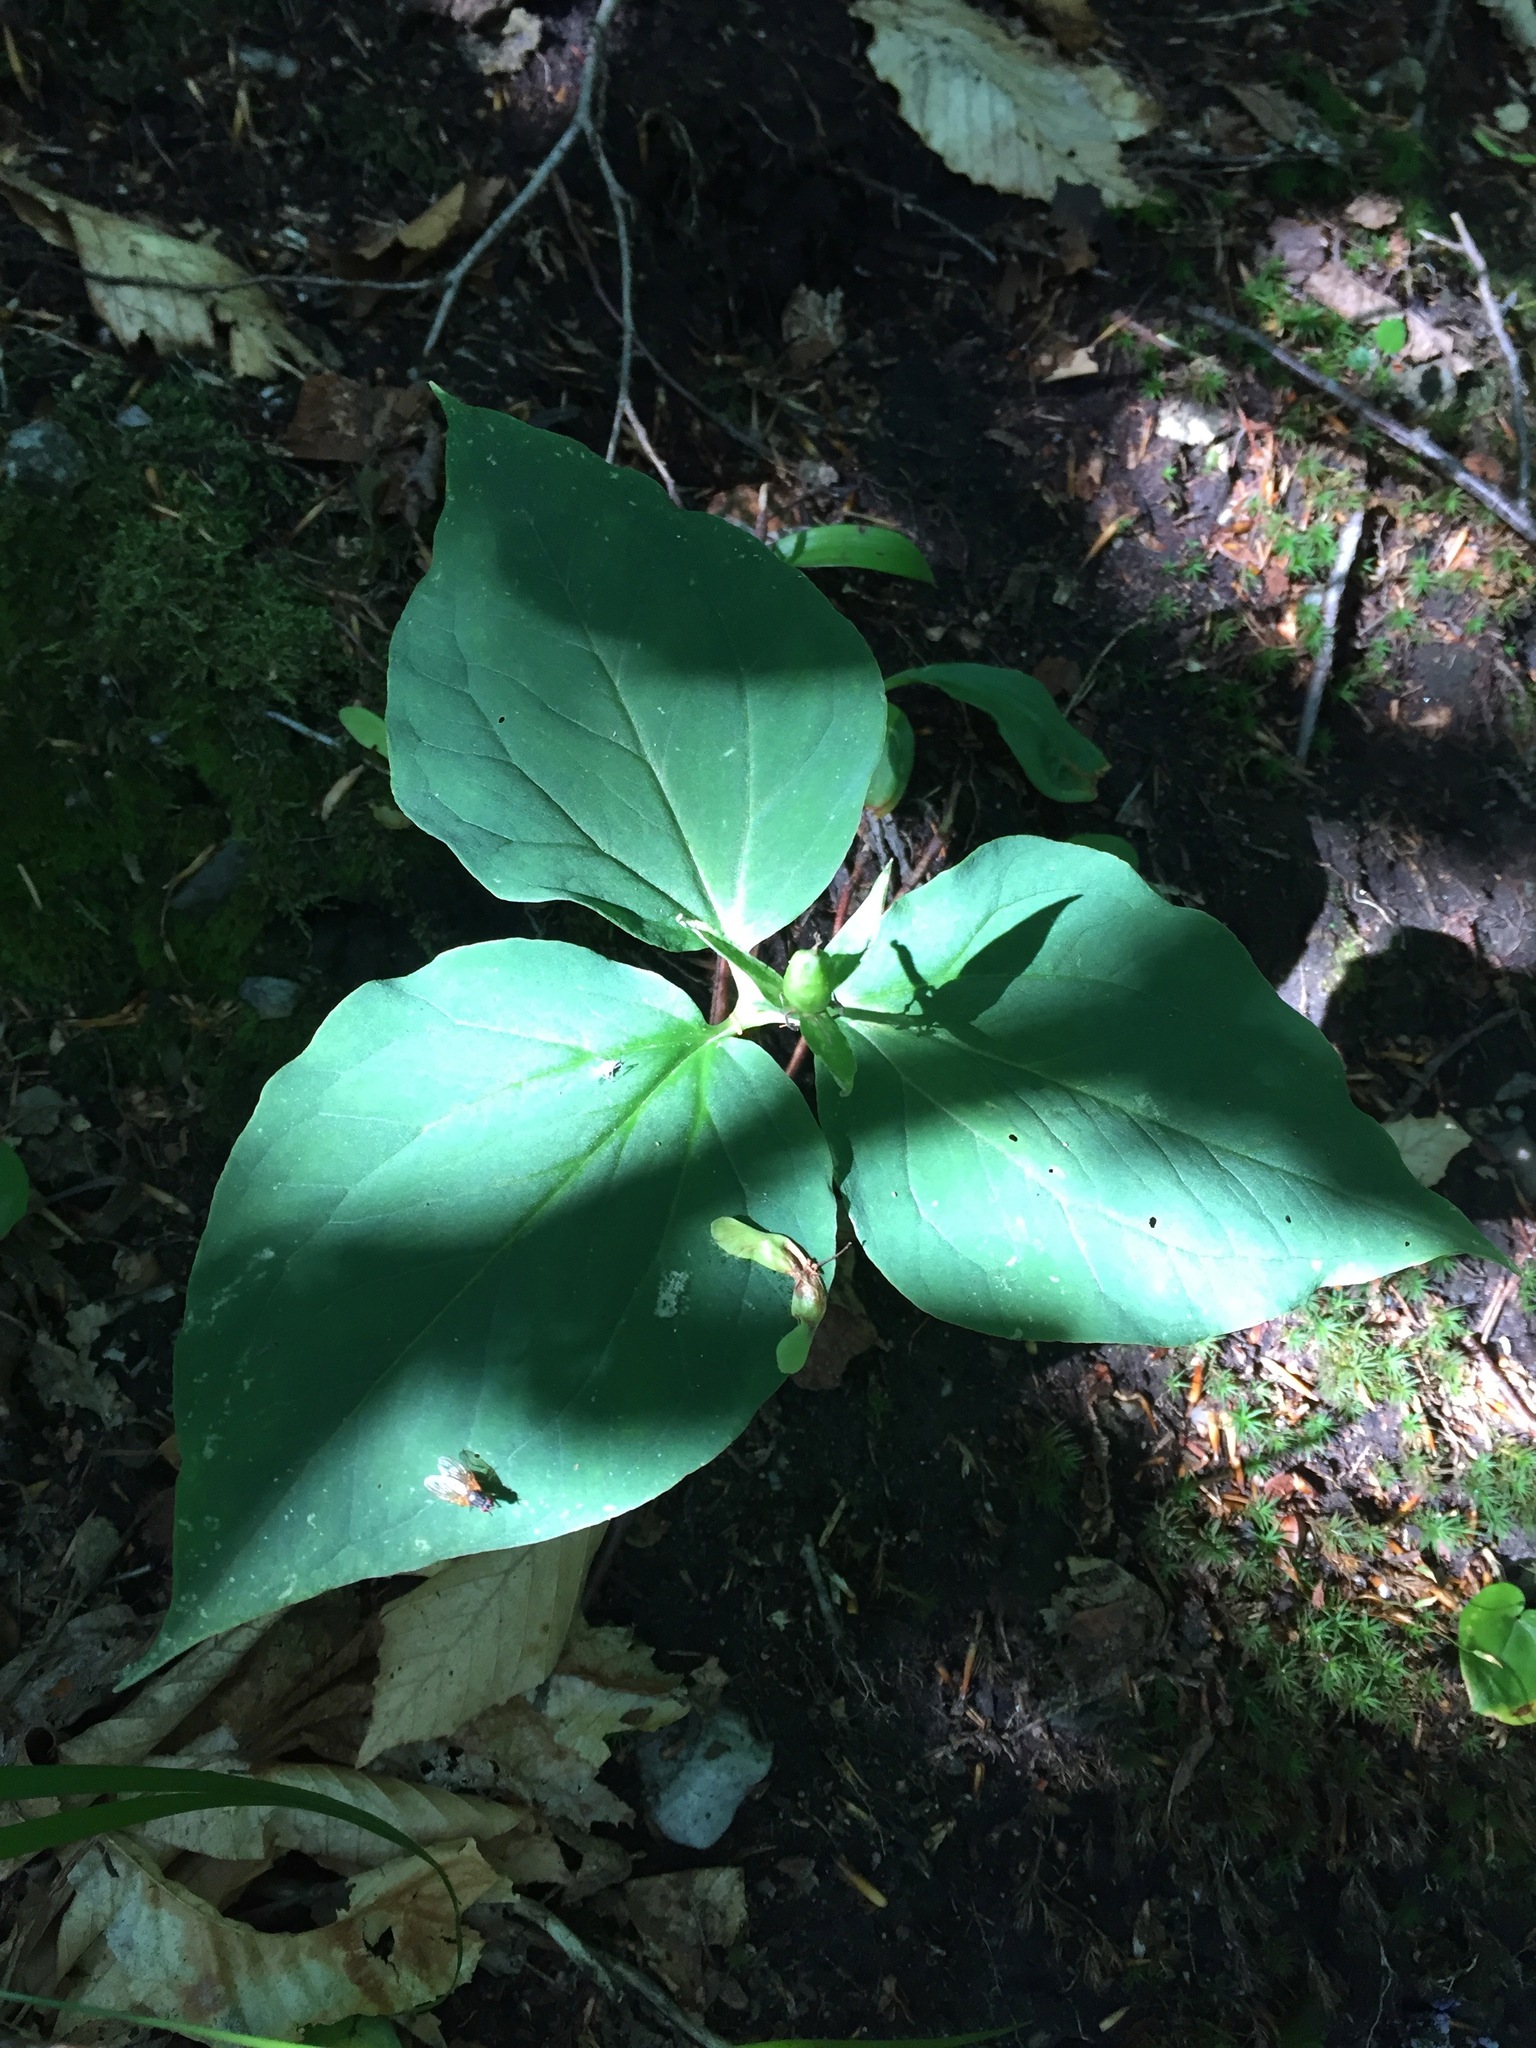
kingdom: Plantae
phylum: Tracheophyta
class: Liliopsida
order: Liliales
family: Melanthiaceae
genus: Trillium
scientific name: Trillium undulatum
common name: Paint trillium
